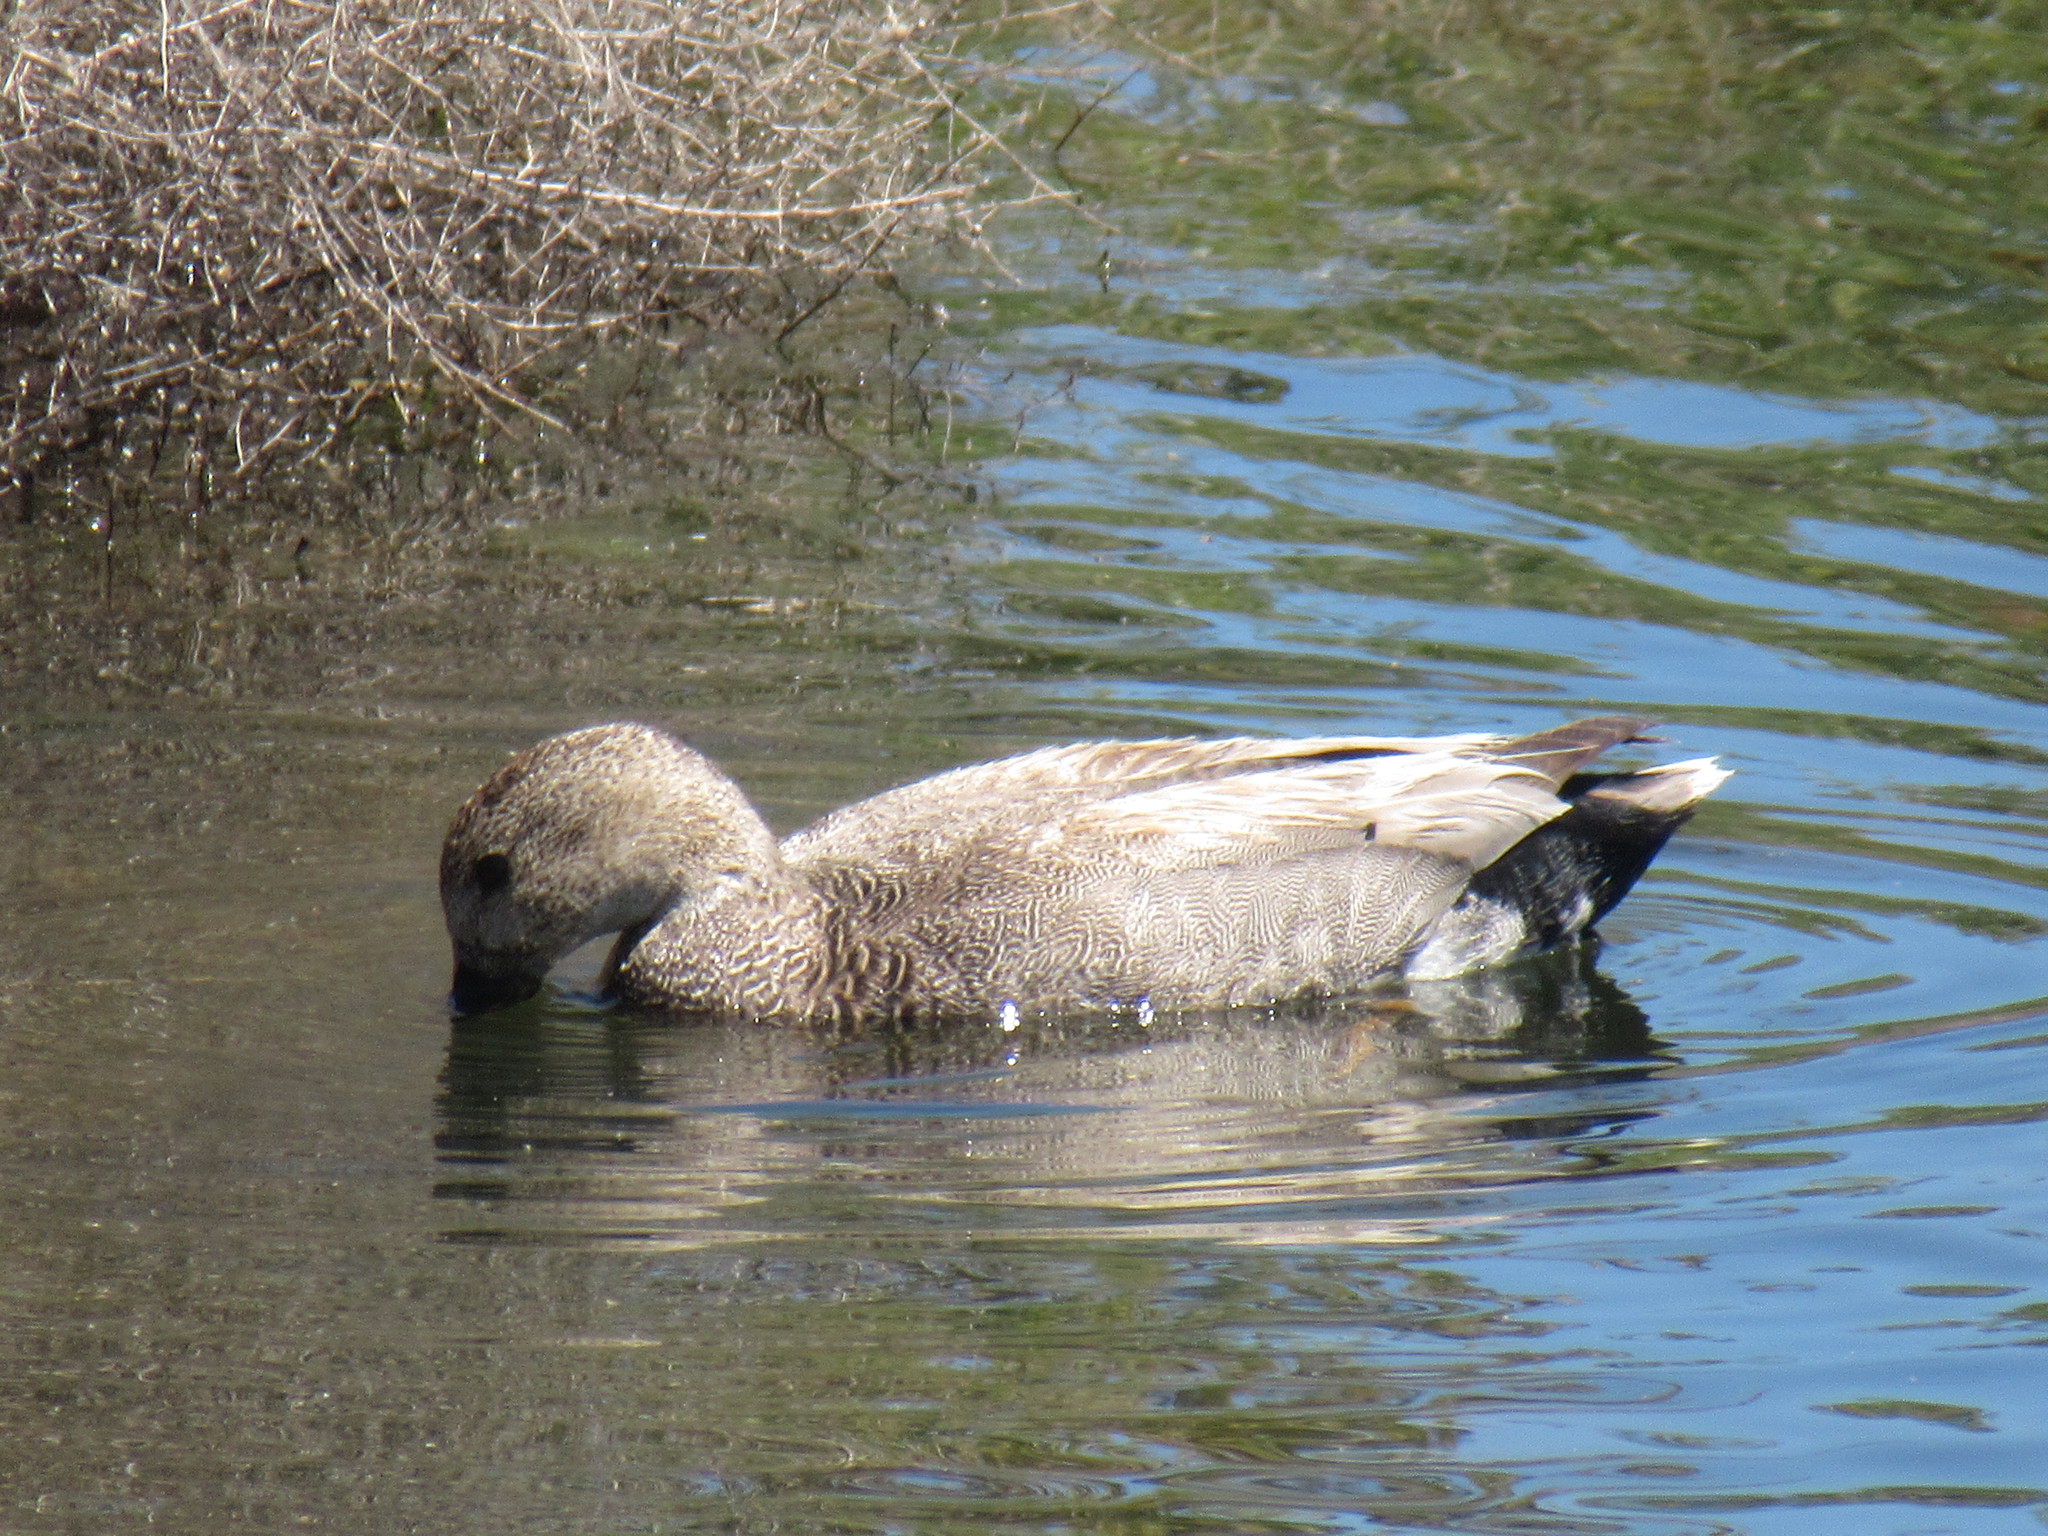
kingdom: Animalia
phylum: Chordata
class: Aves
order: Anseriformes
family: Anatidae
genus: Mareca
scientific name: Mareca strepera
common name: Gadwall
